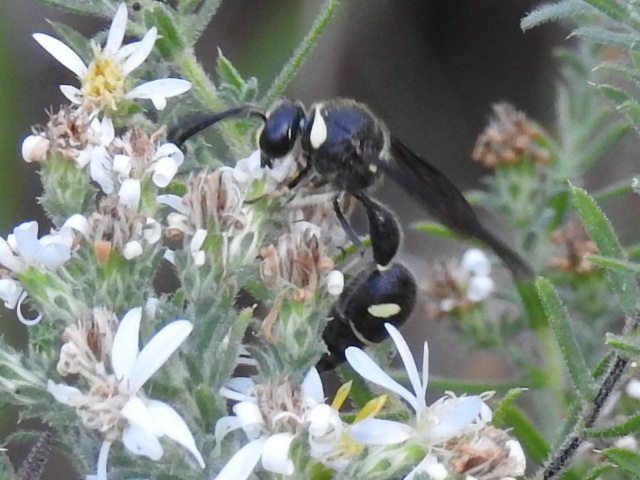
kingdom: Animalia
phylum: Arthropoda
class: Insecta
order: Hymenoptera
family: Vespidae
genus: Eumenes
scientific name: Eumenes fraternus
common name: Fraternal potter wasp
